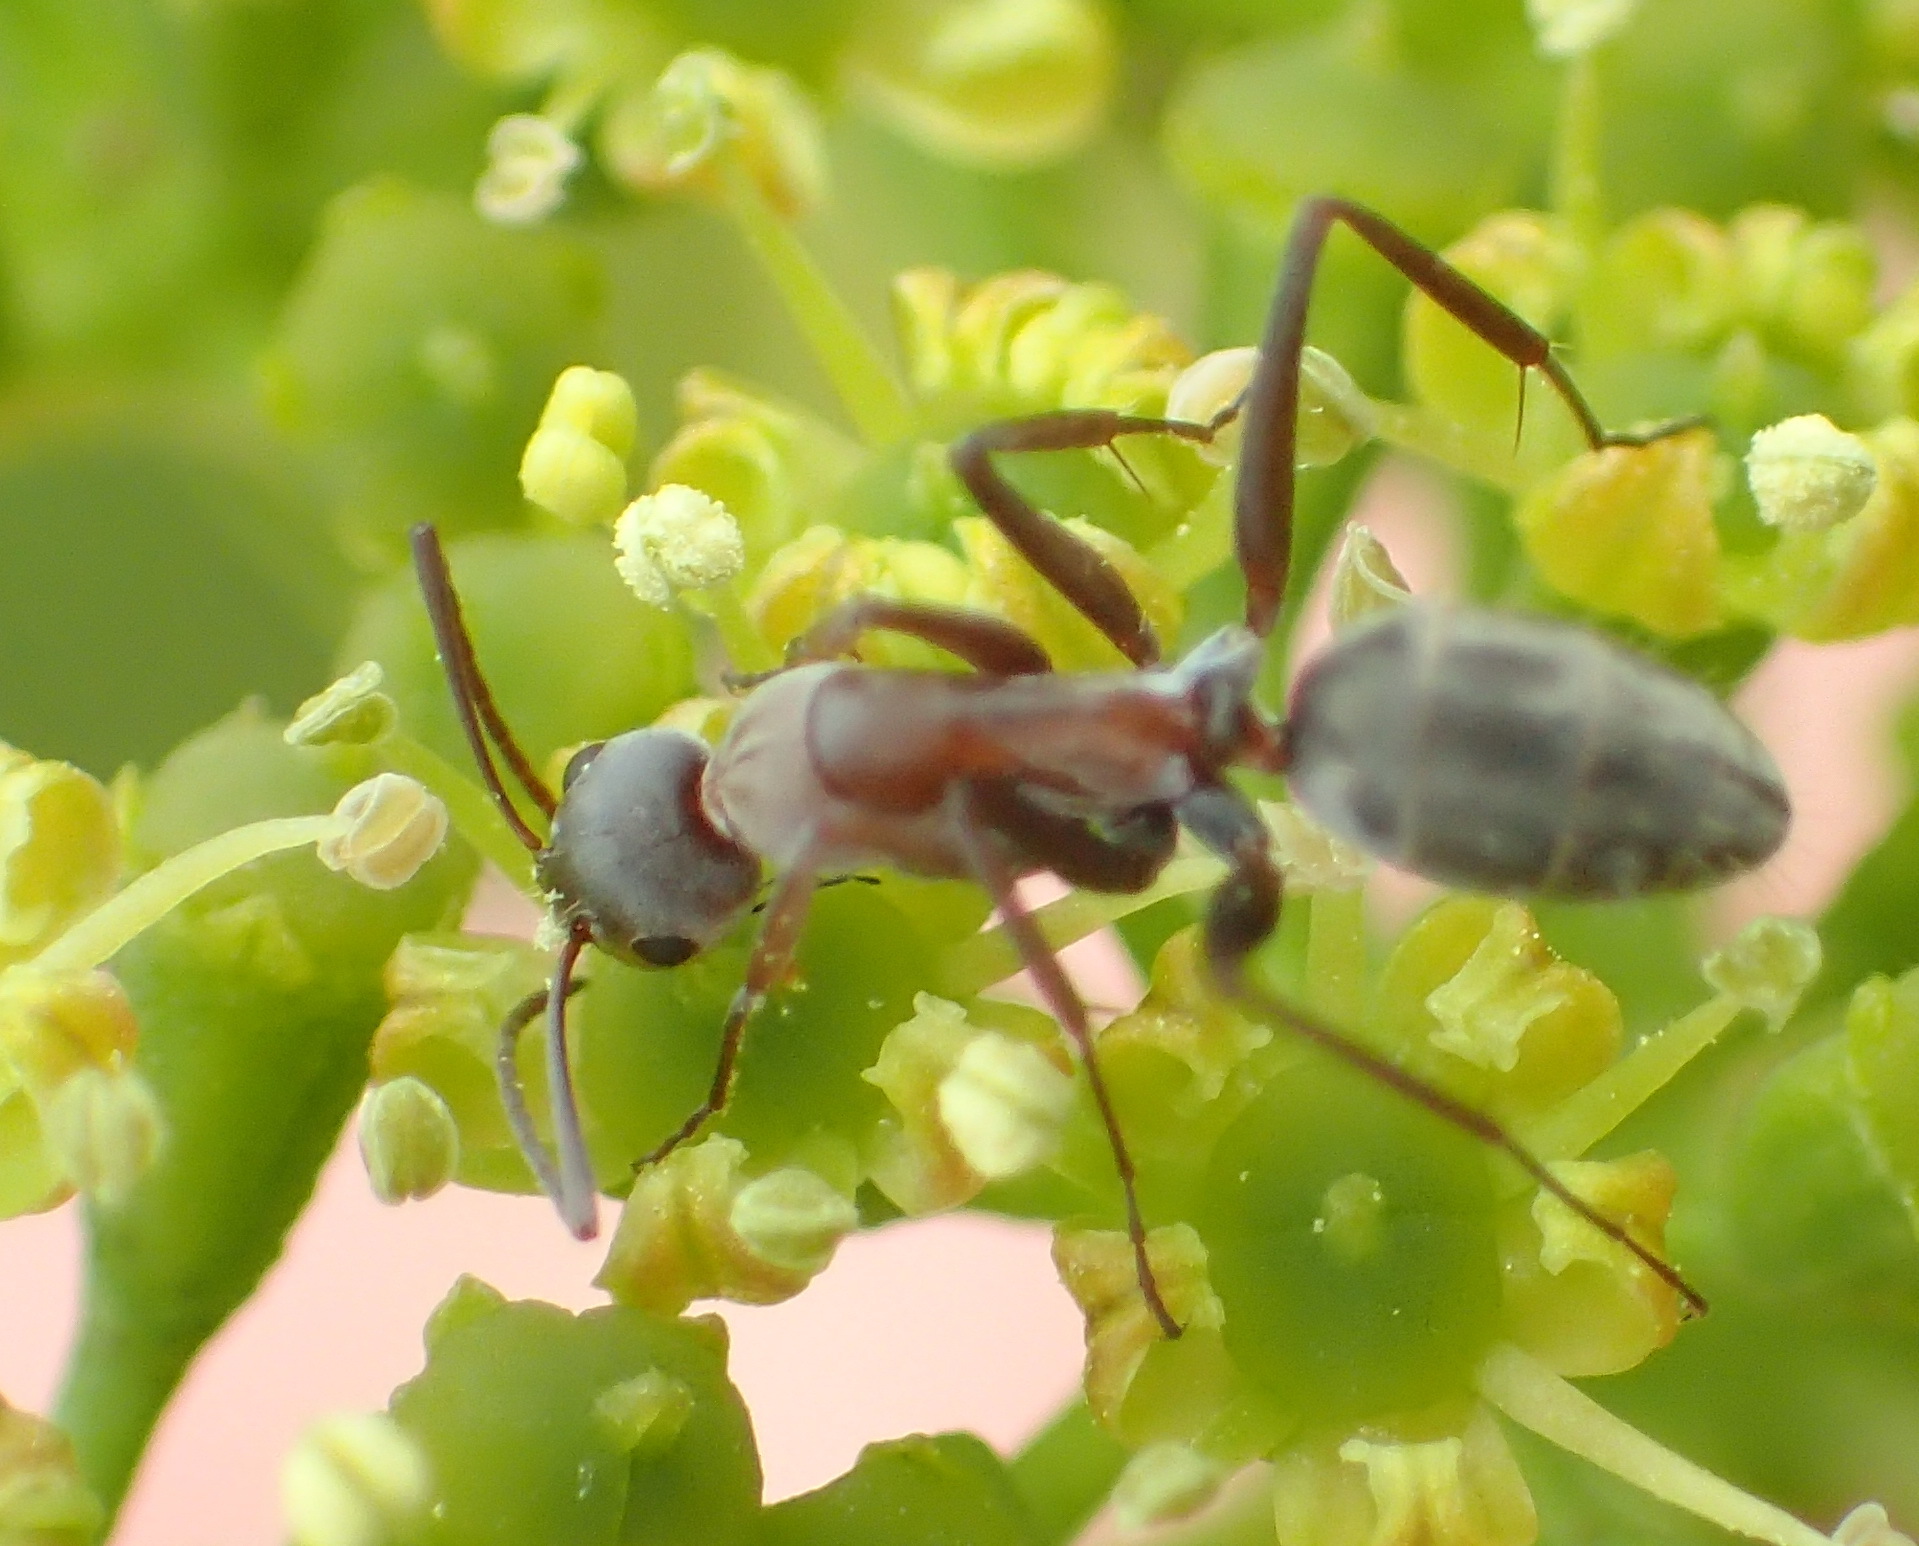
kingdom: Animalia
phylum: Arthropoda
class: Insecta
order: Hymenoptera
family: Formicidae
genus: Camponotus
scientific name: Camponotus vestitus
